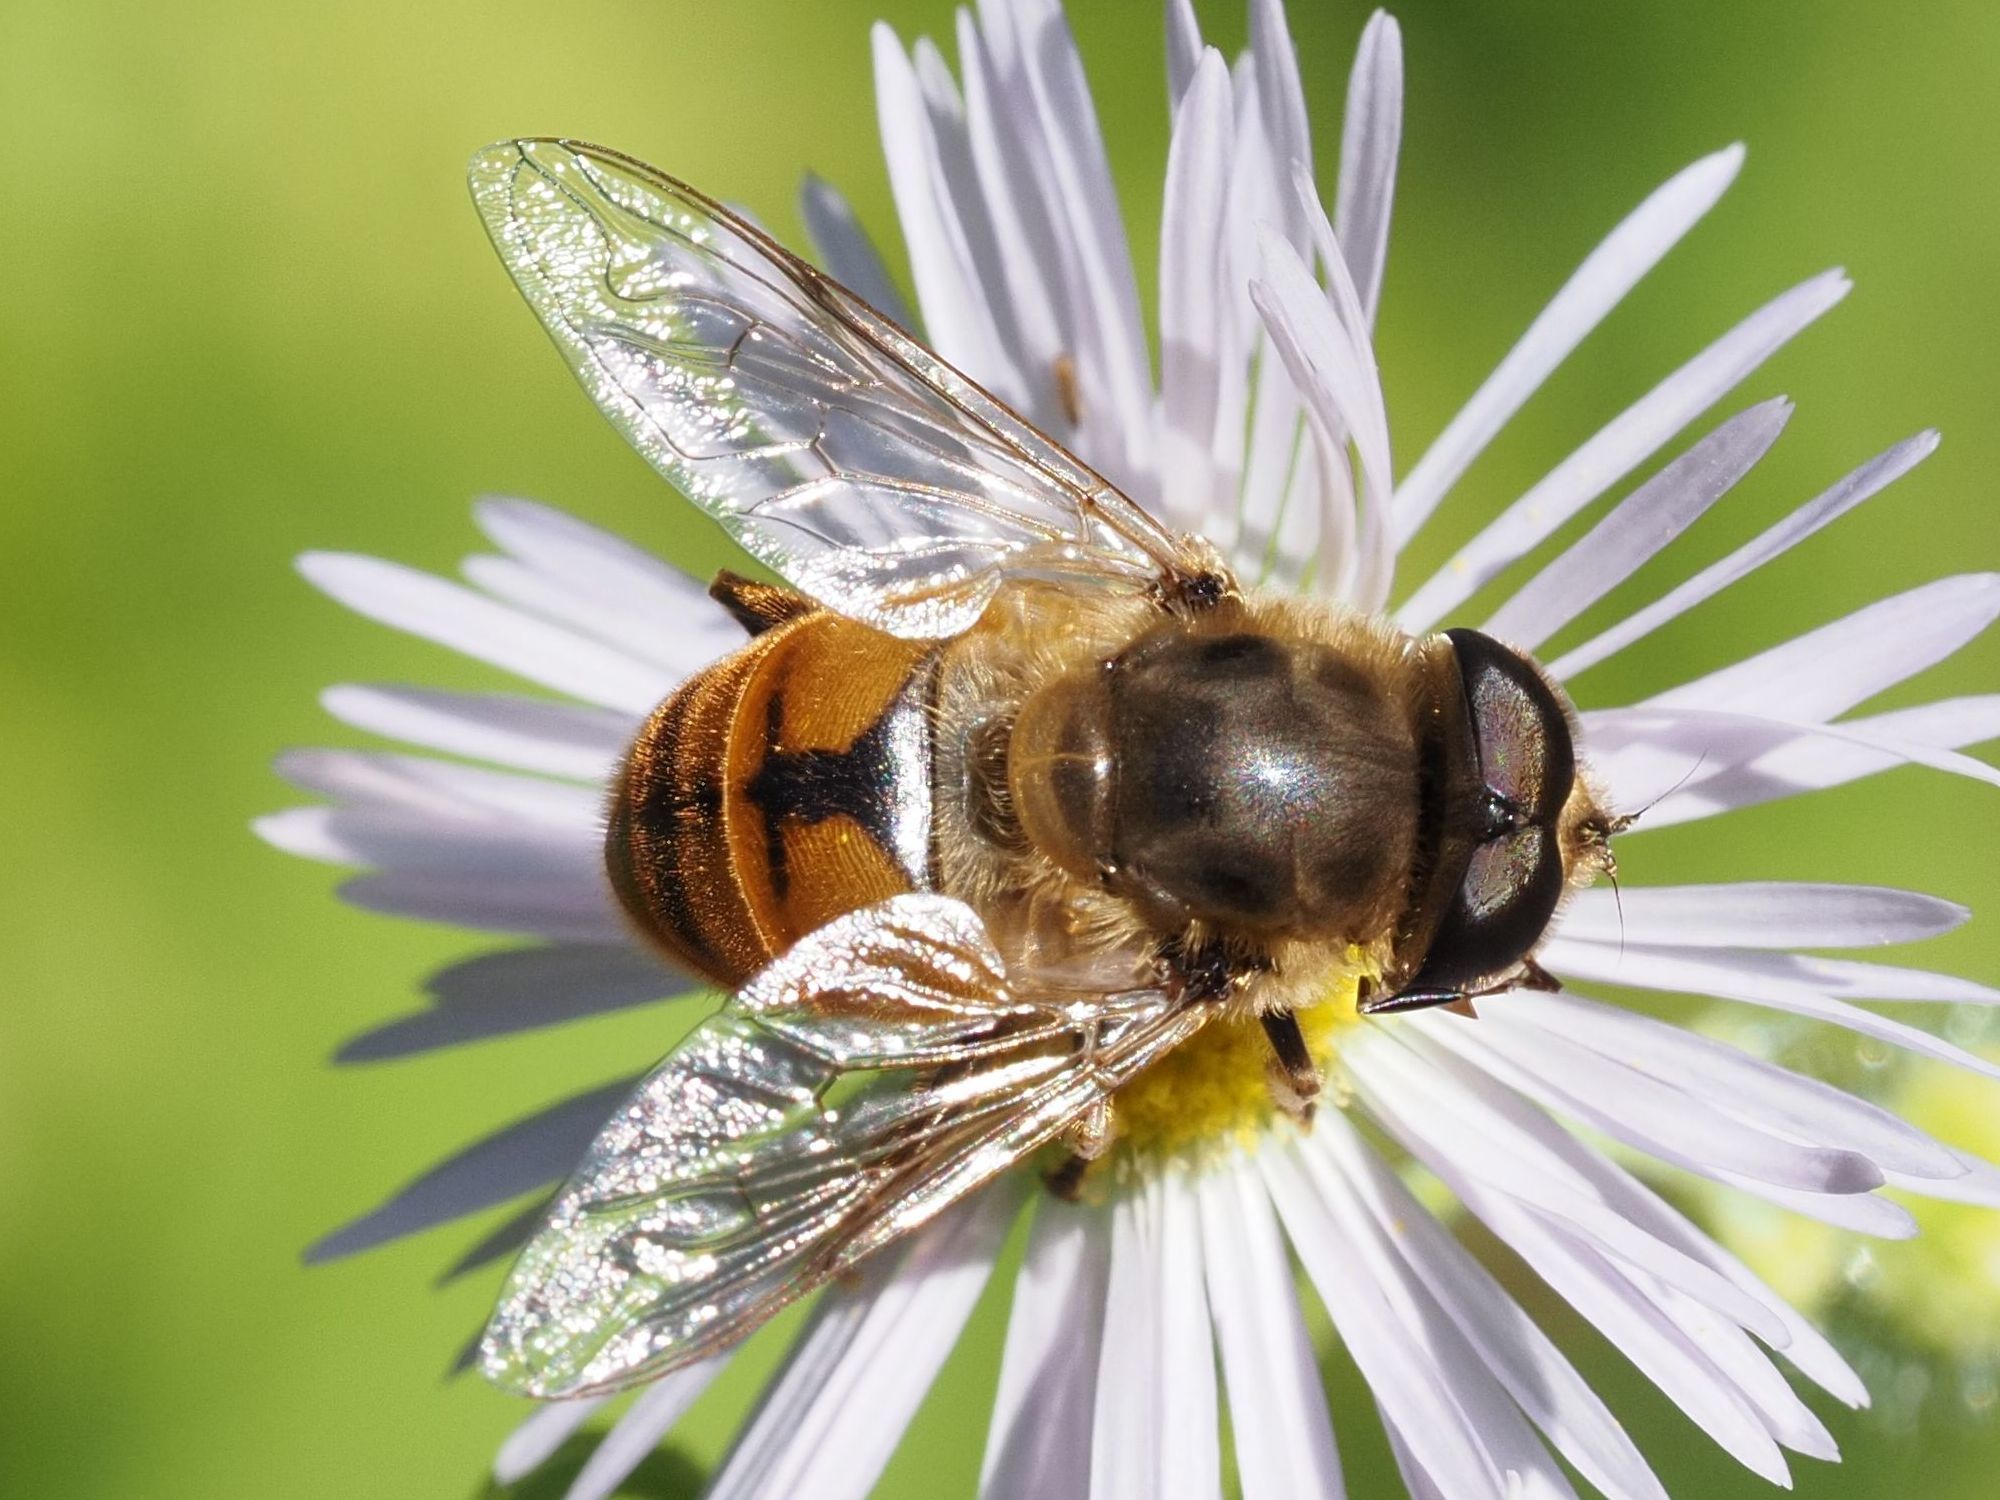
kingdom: Animalia
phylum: Arthropoda
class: Insecta
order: Diptera
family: Syrphidae
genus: Eristalis
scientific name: Eristalis tenax
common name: Drone fly
